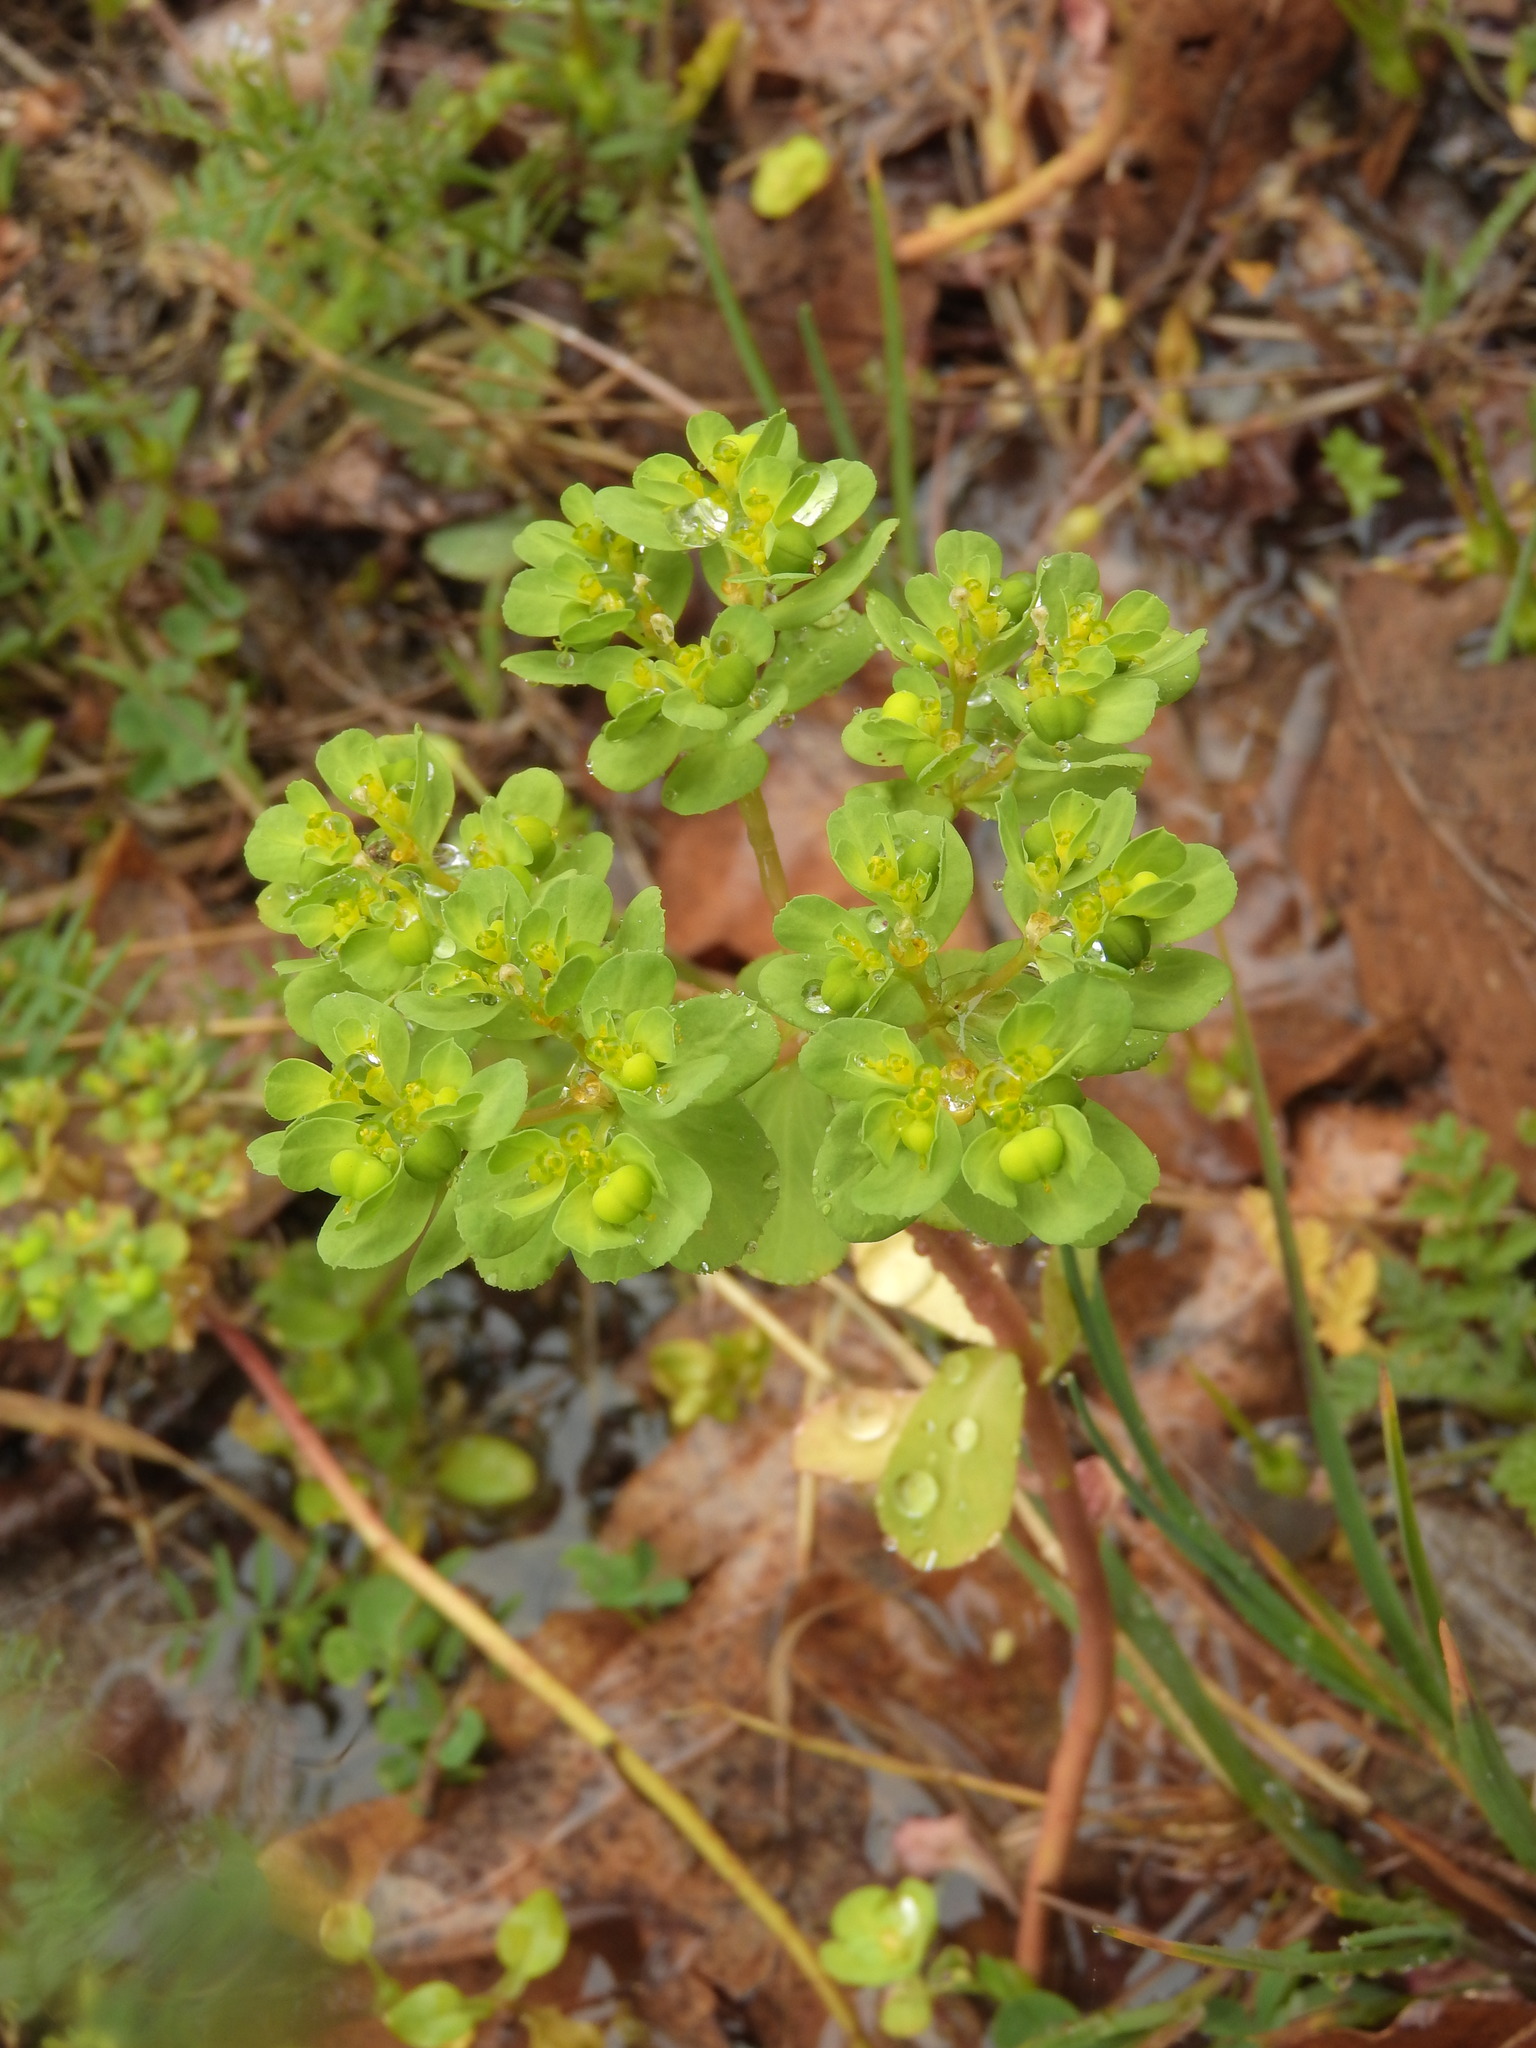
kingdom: Plantae
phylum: Tracheophyta
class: Magnoliopsida
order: Malpighiales
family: Euphorbiaceae
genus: Euphorbia
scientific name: Euphorbia helioscopia
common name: Sun spurge
